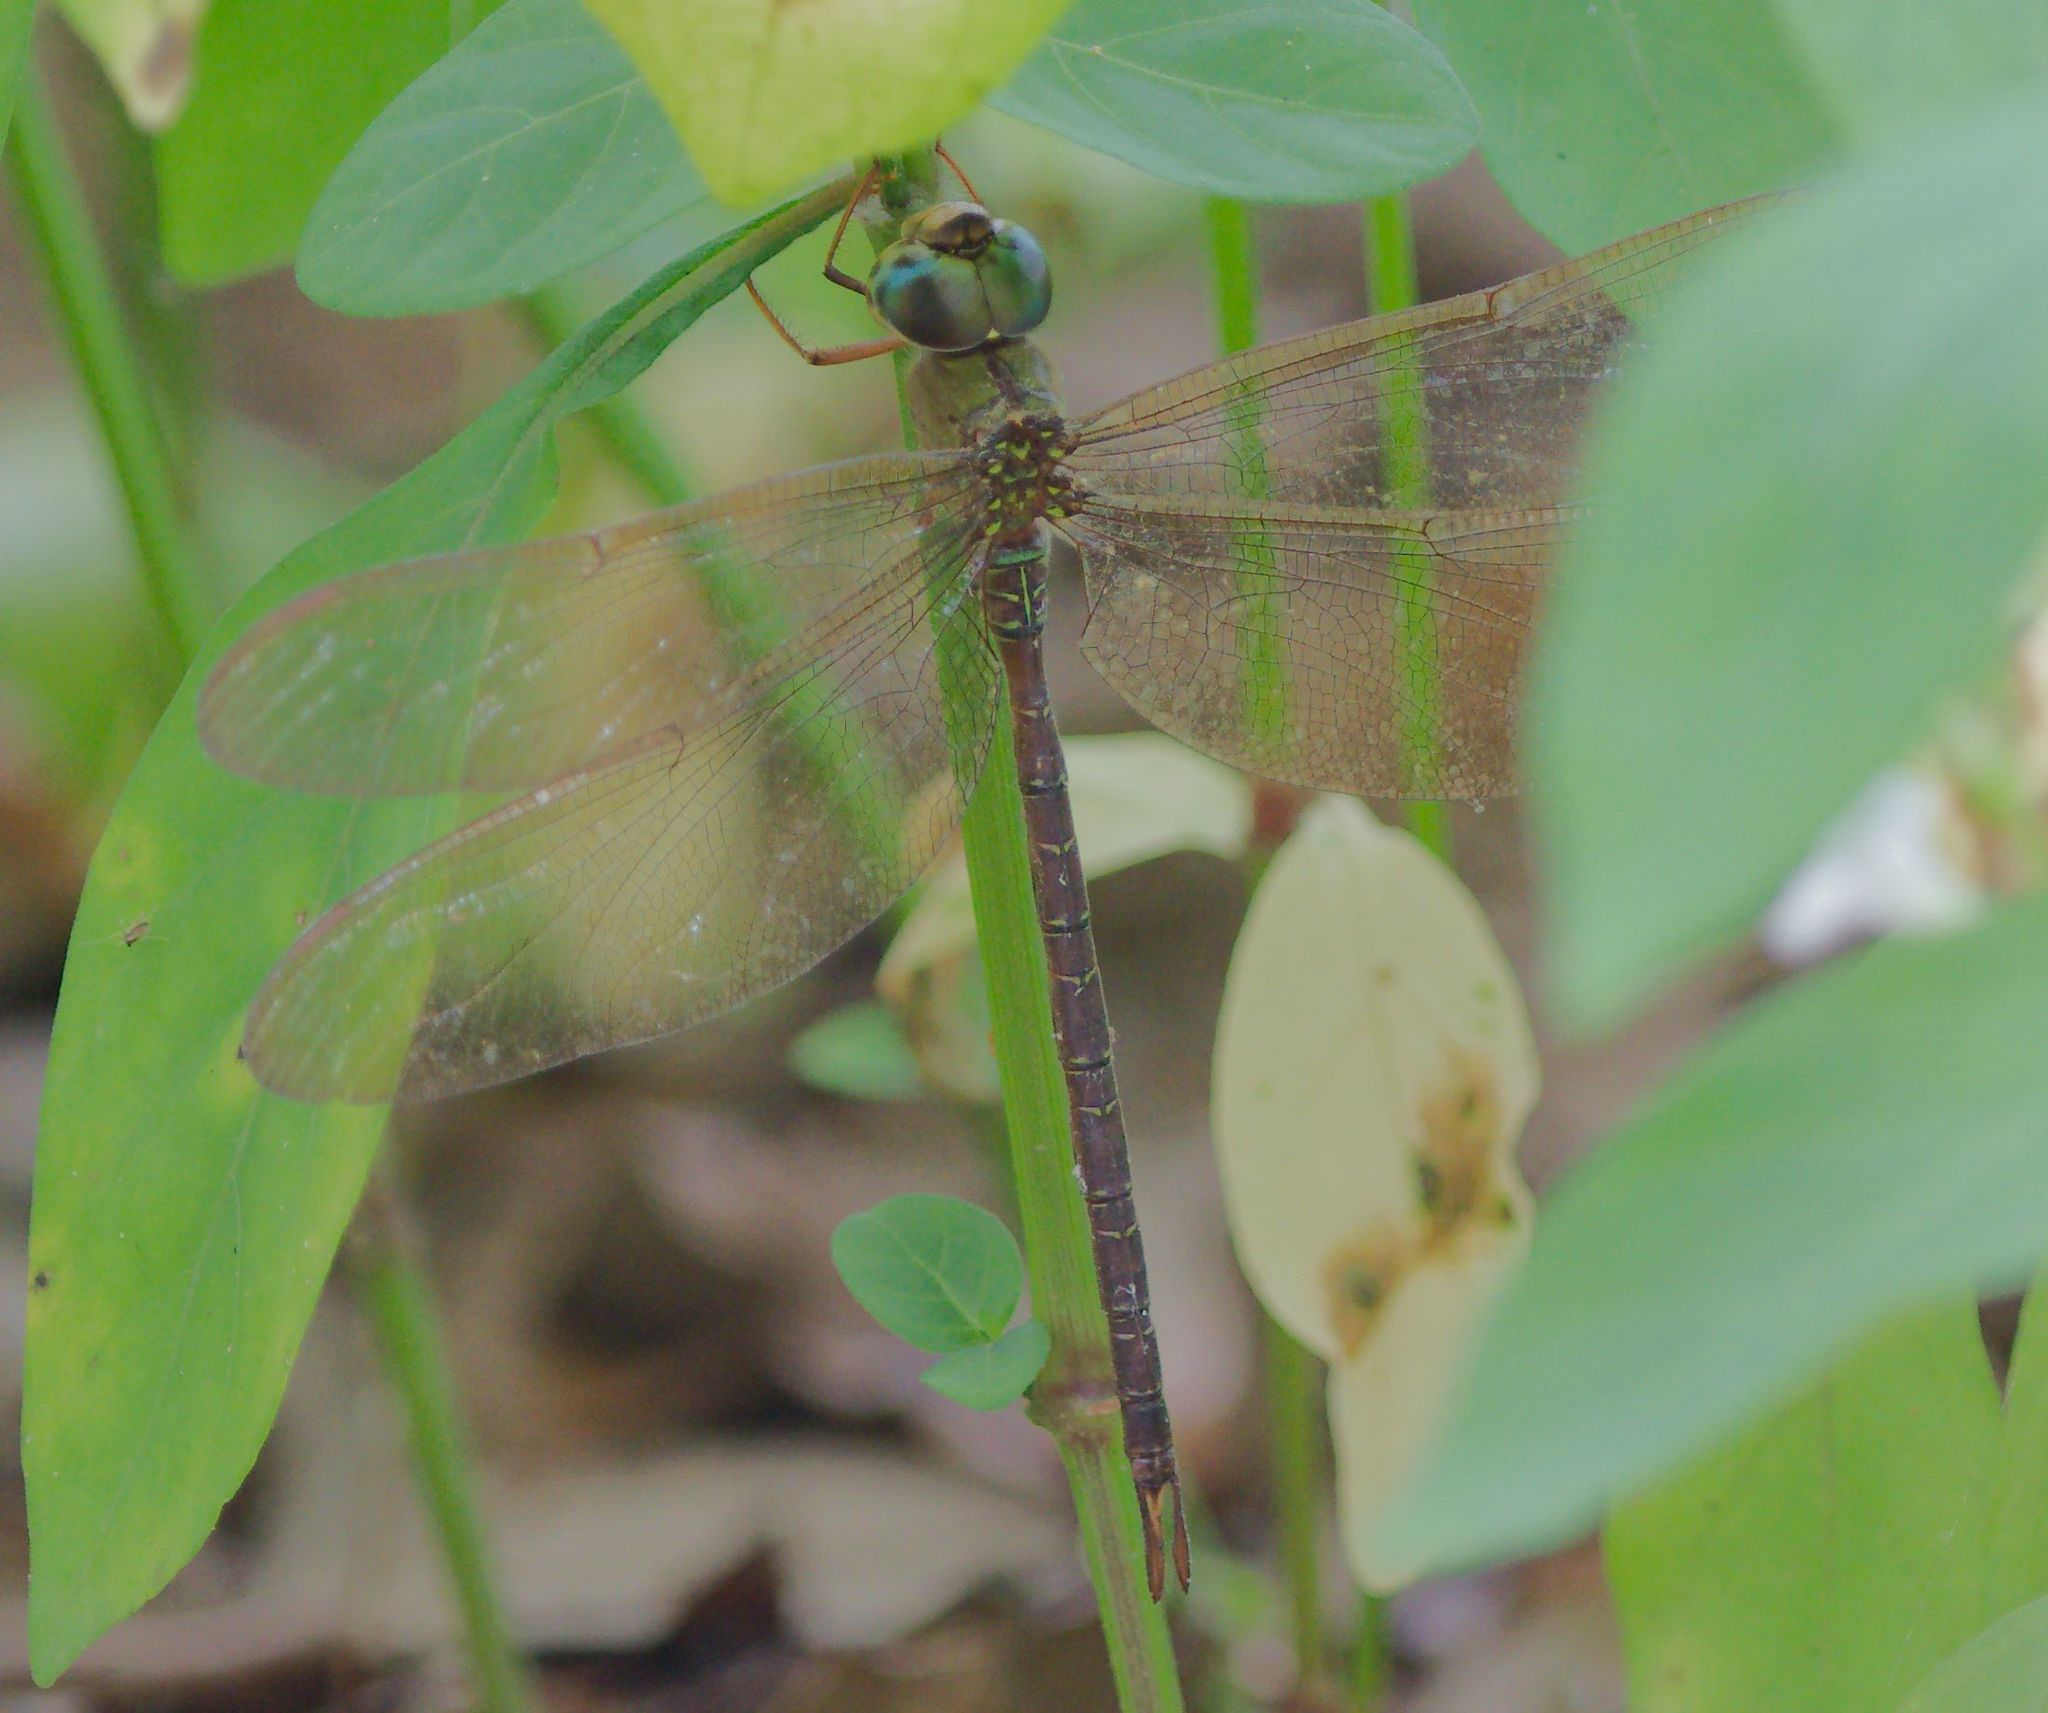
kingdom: Animalia
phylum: Arthropoda
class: Insecta
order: Odonata
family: Aeshnidae
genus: Gynacantha
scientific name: Gynacantha nervosa
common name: Twilight darner
